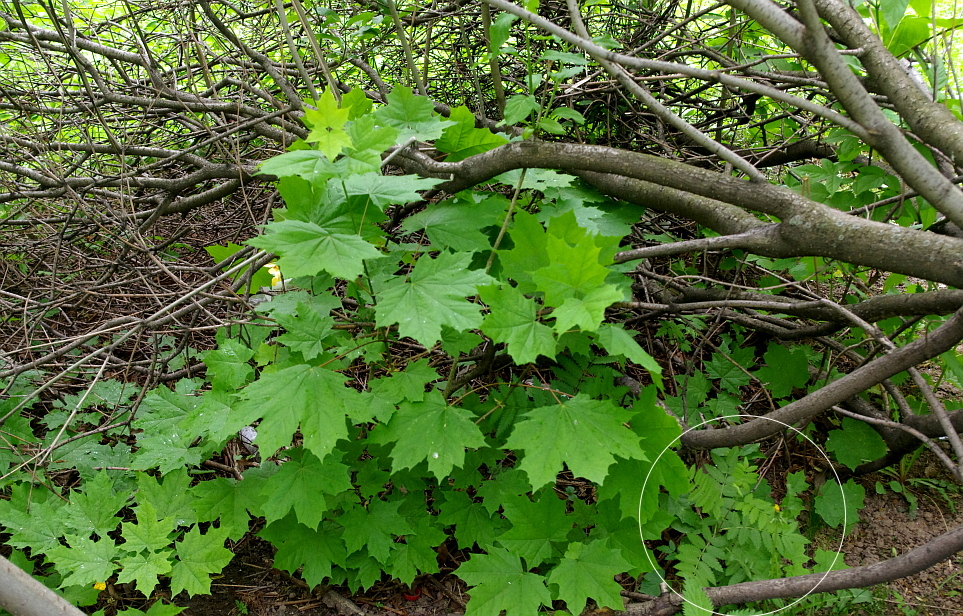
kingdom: Plantae
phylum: Tracheophyta
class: Magnoliopsida
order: Rosales
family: Rosaceae
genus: Sorbus
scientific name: Sorbus aucuparia
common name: Rowan
